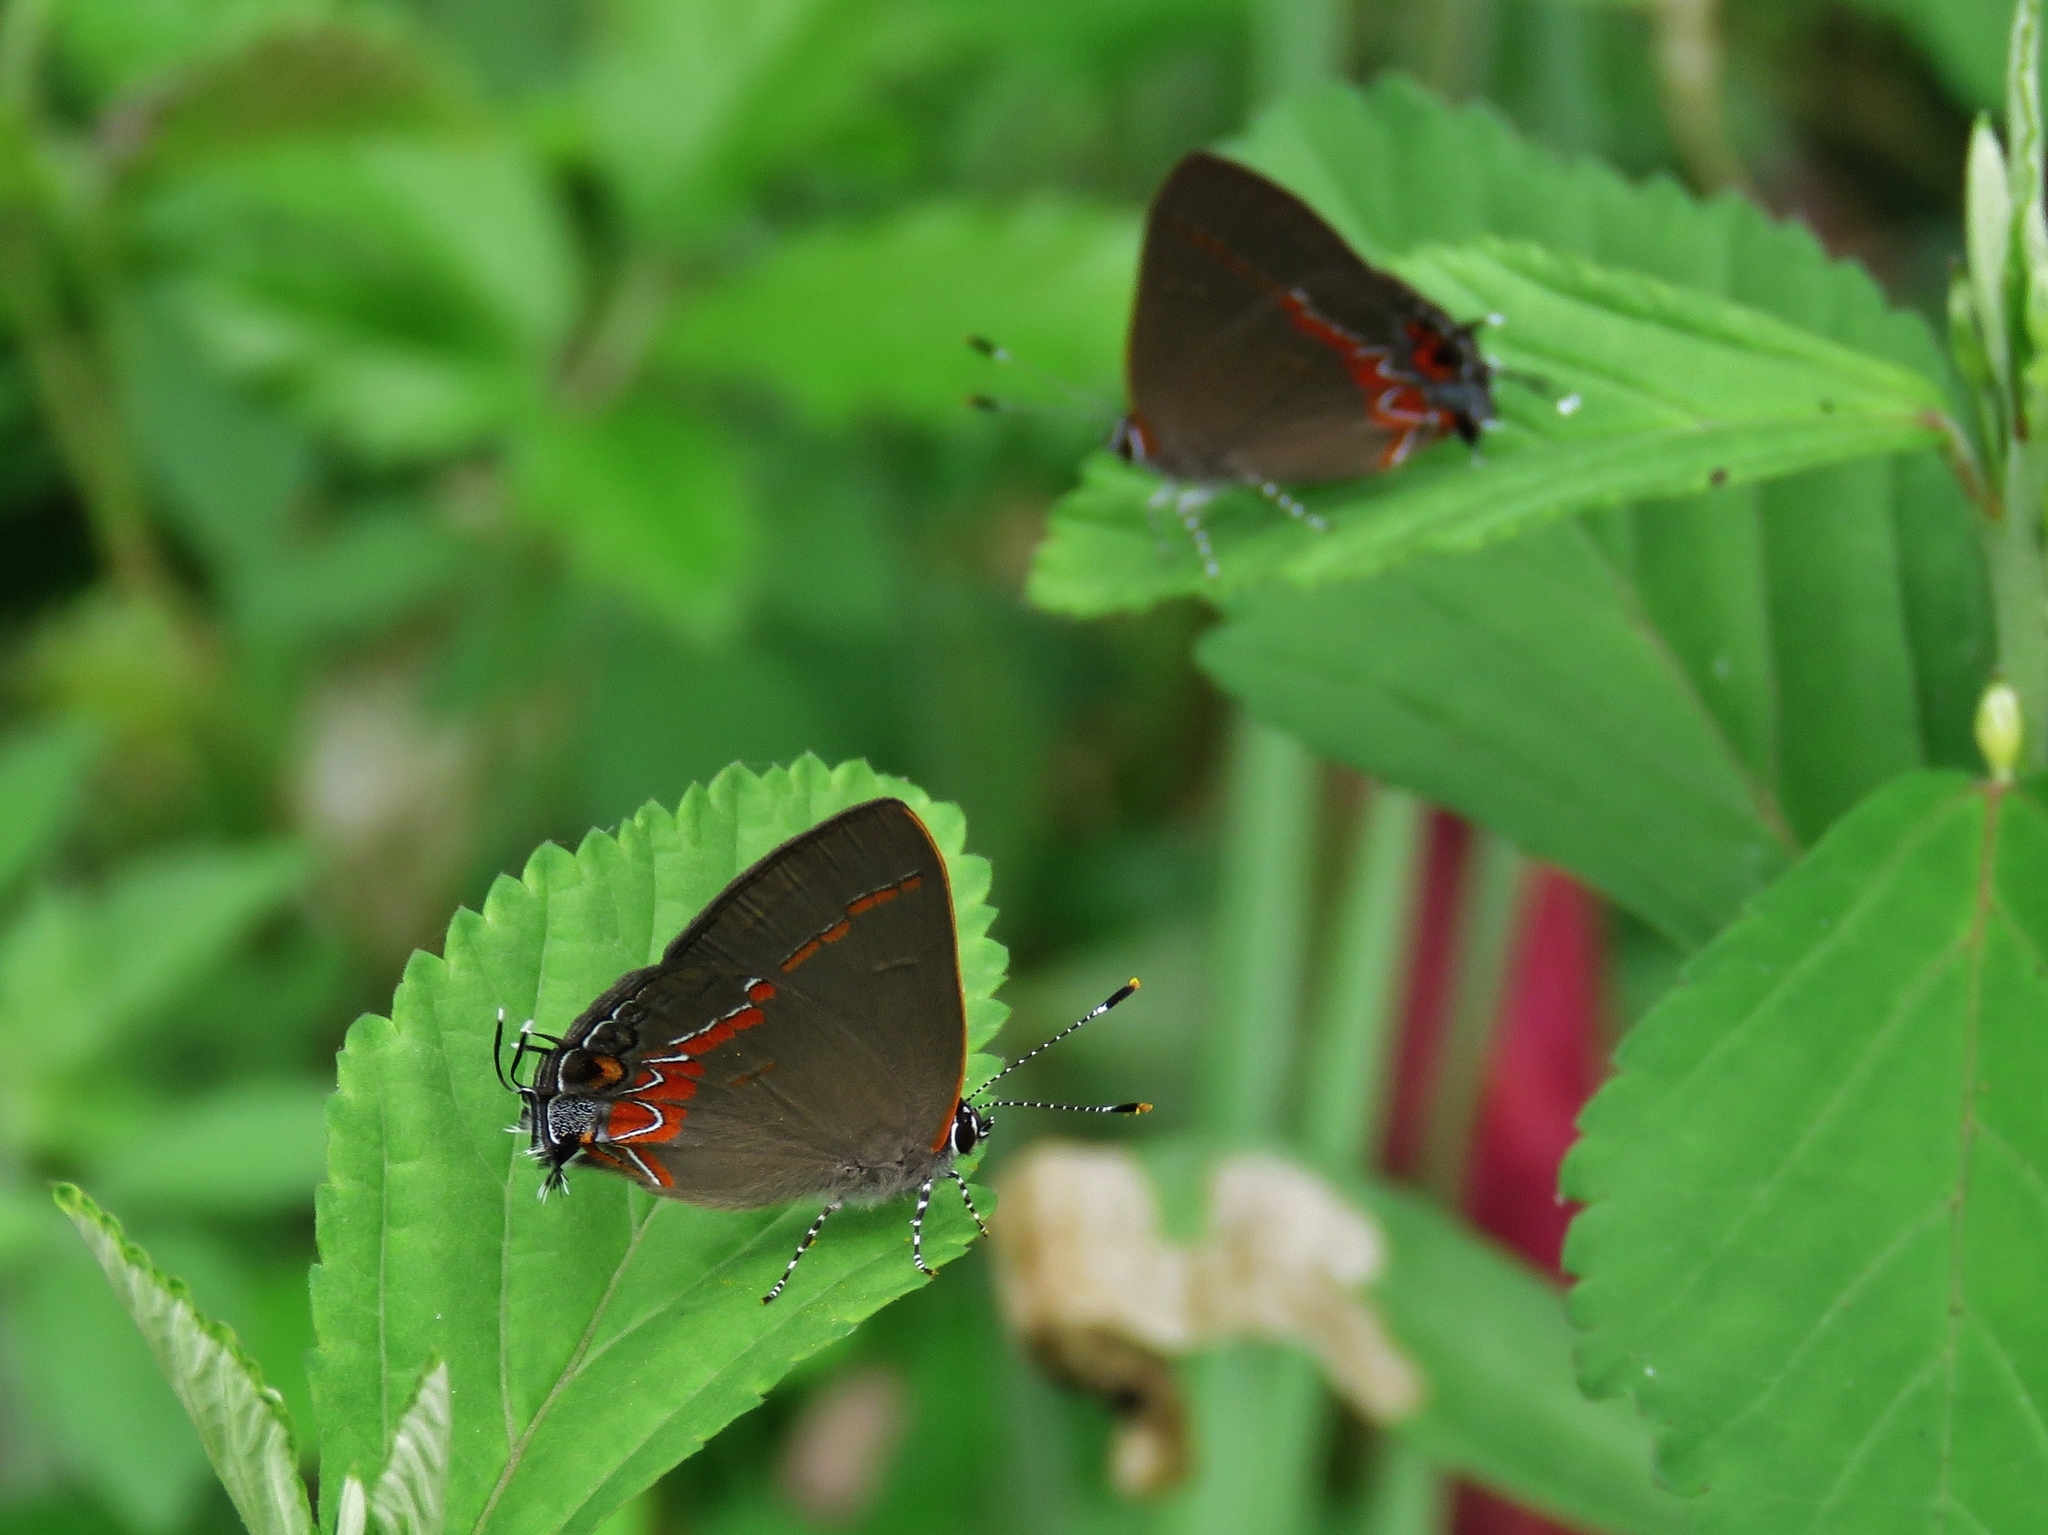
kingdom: Animalia
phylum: Arthropoda
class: Insecta
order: Lepidoptera
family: Lycaenidae
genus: Calycopis
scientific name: Calycopis cecrops
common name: Red-banded hairstreak
